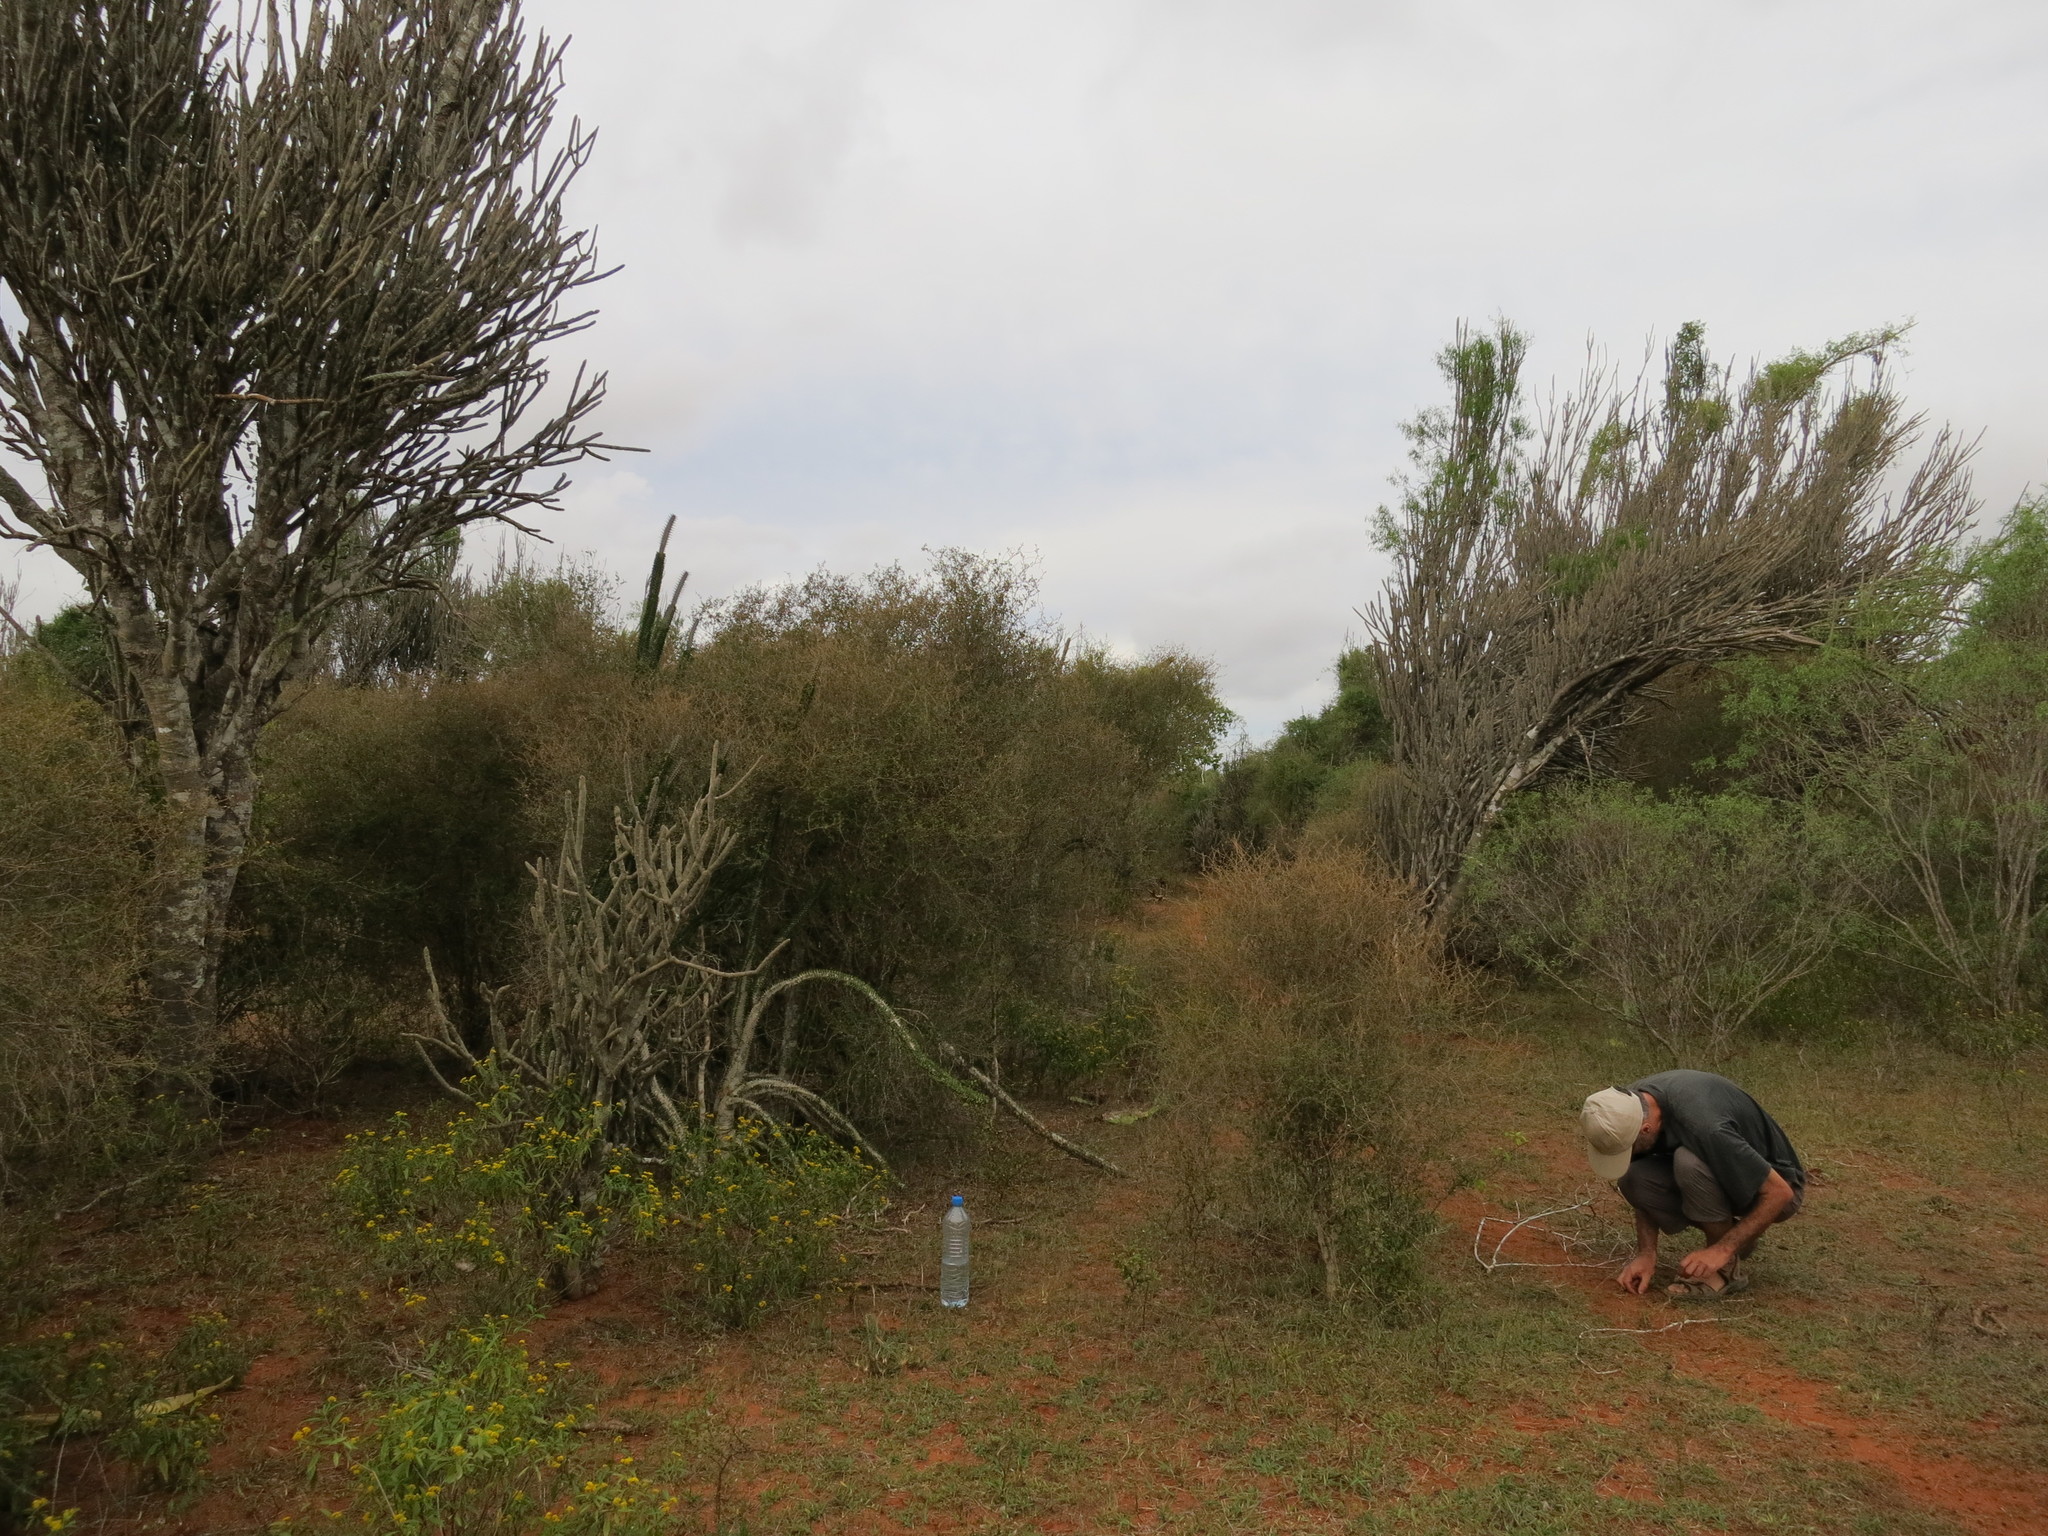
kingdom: Plantae
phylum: Tracheophyta
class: Liliopsida
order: Poales
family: Poaceae
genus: Decaryella
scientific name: Decaryella madagascariensis
